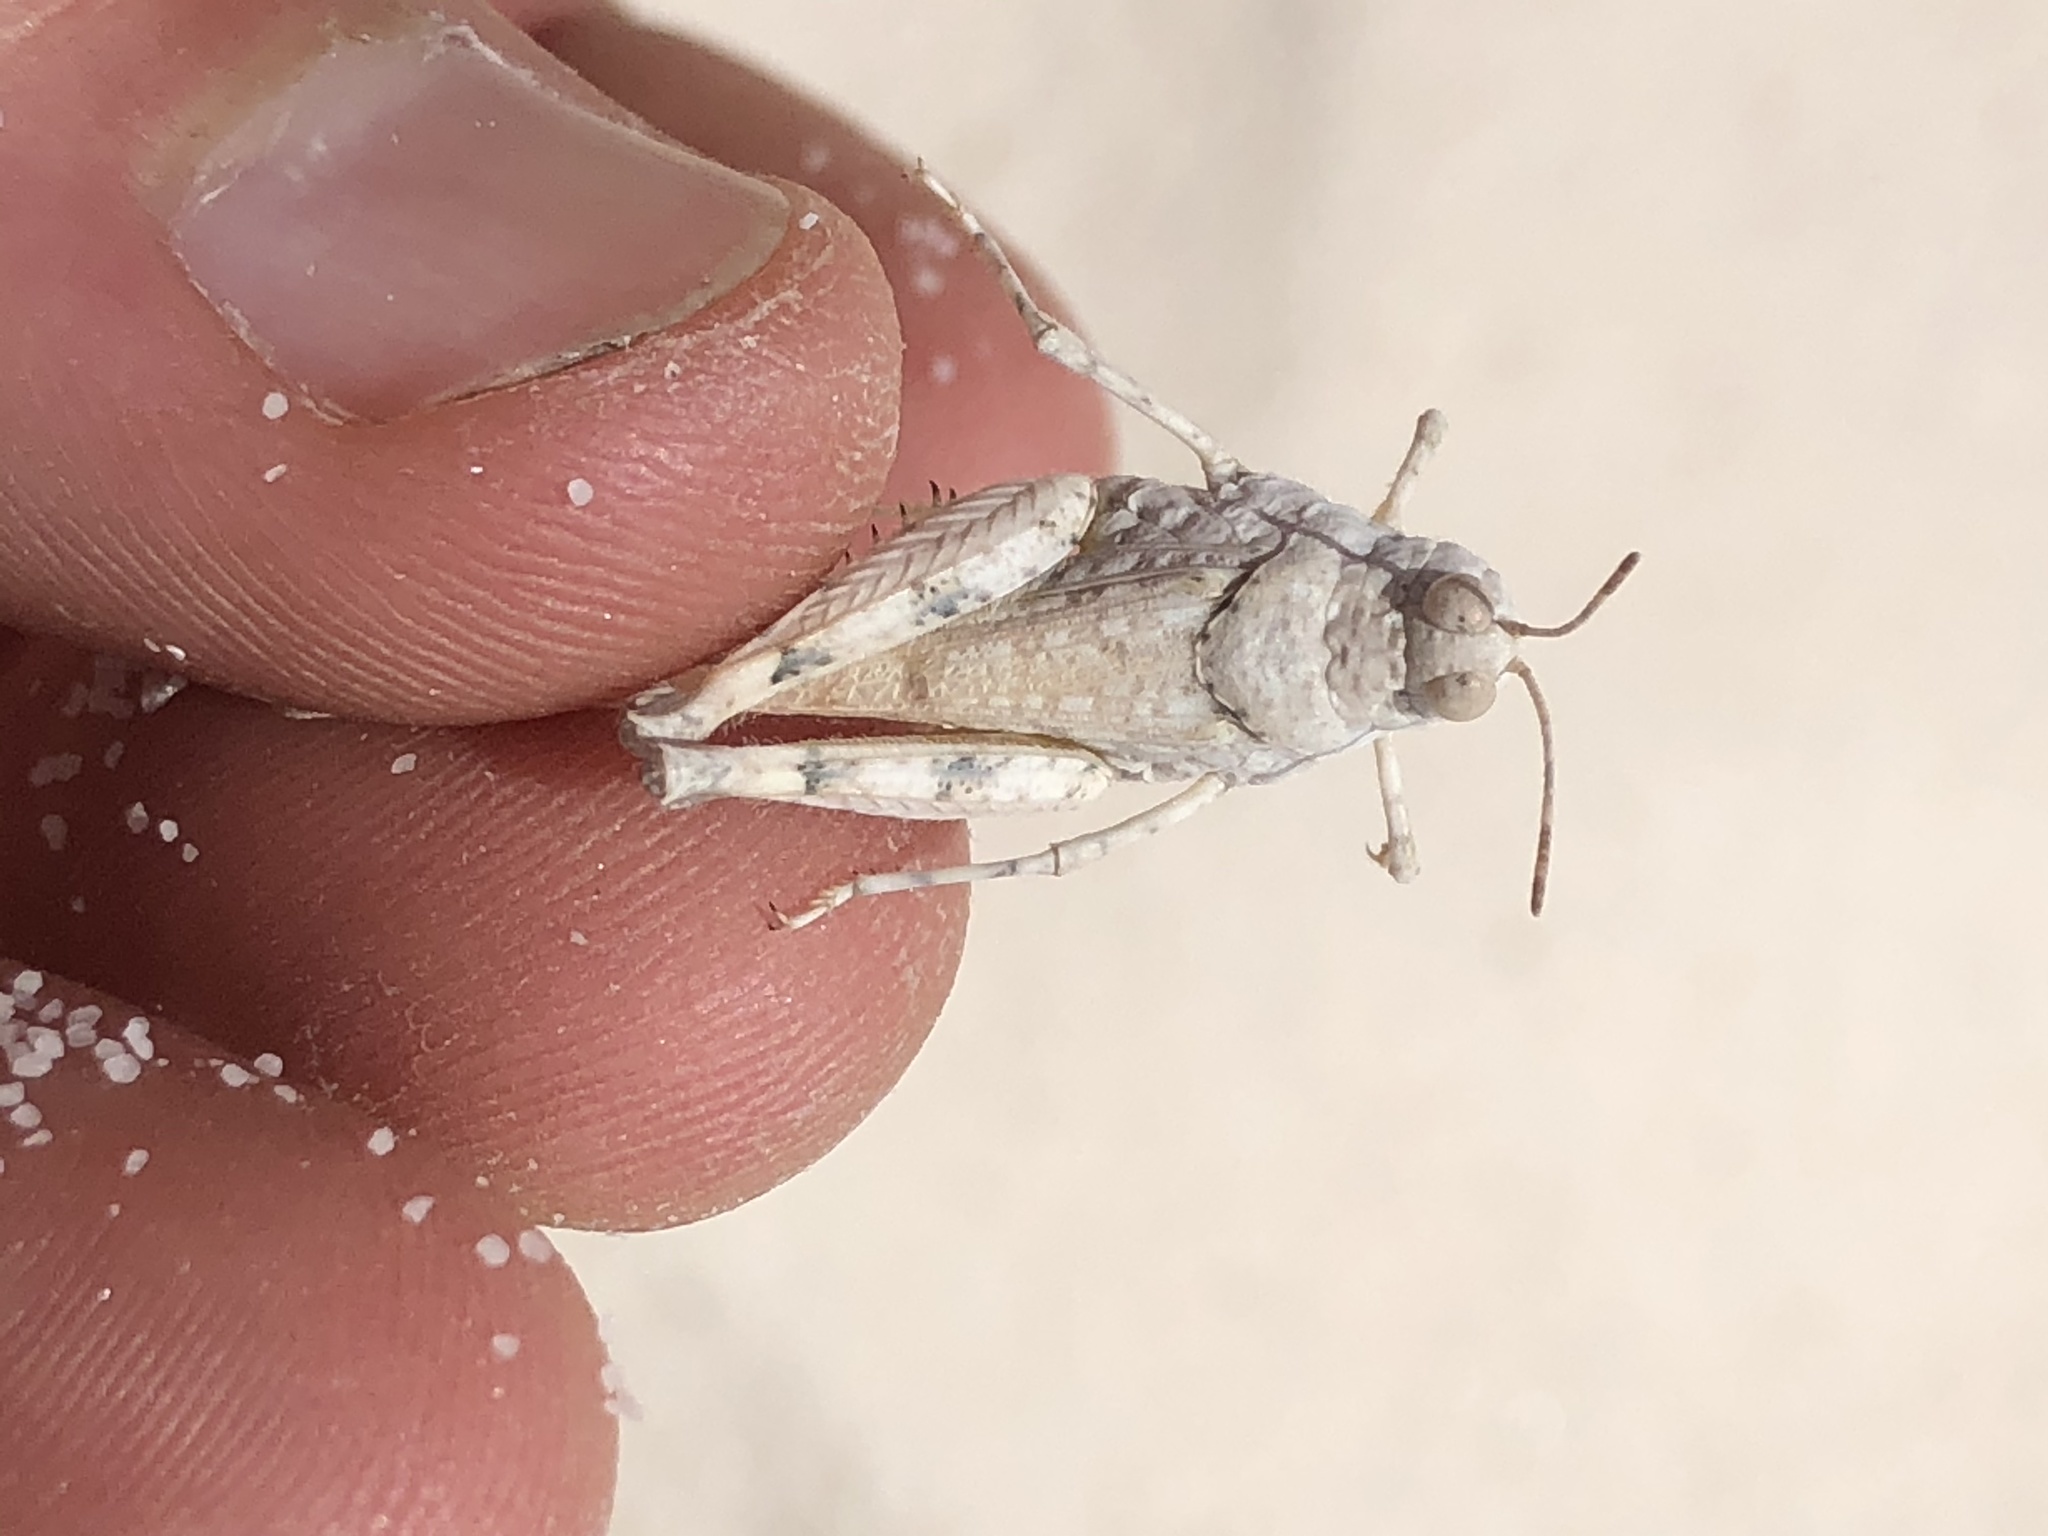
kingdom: Animalia
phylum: Arthropoda
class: Insecta
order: Orthoptera
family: Acrididae
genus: Cibolacris
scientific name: Cibolacris samalayucae
